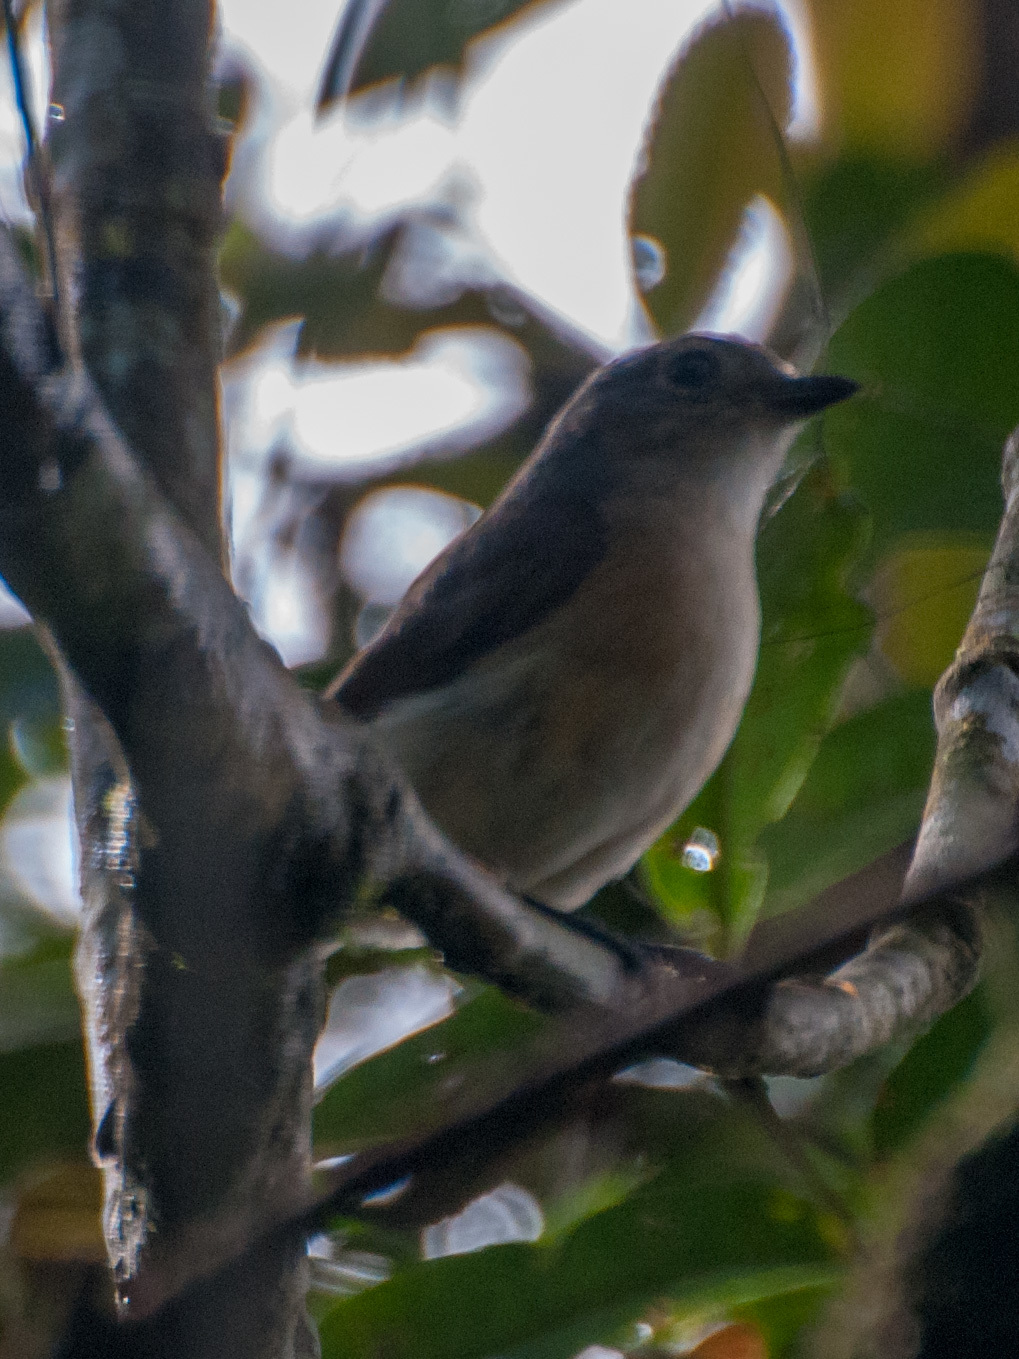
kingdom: Animalia
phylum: Chordata
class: Aves
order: Passeriformes
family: Vangidae
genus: Calicalicus
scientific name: Calicalicus madagascariensis
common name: Red-tailed vanga
